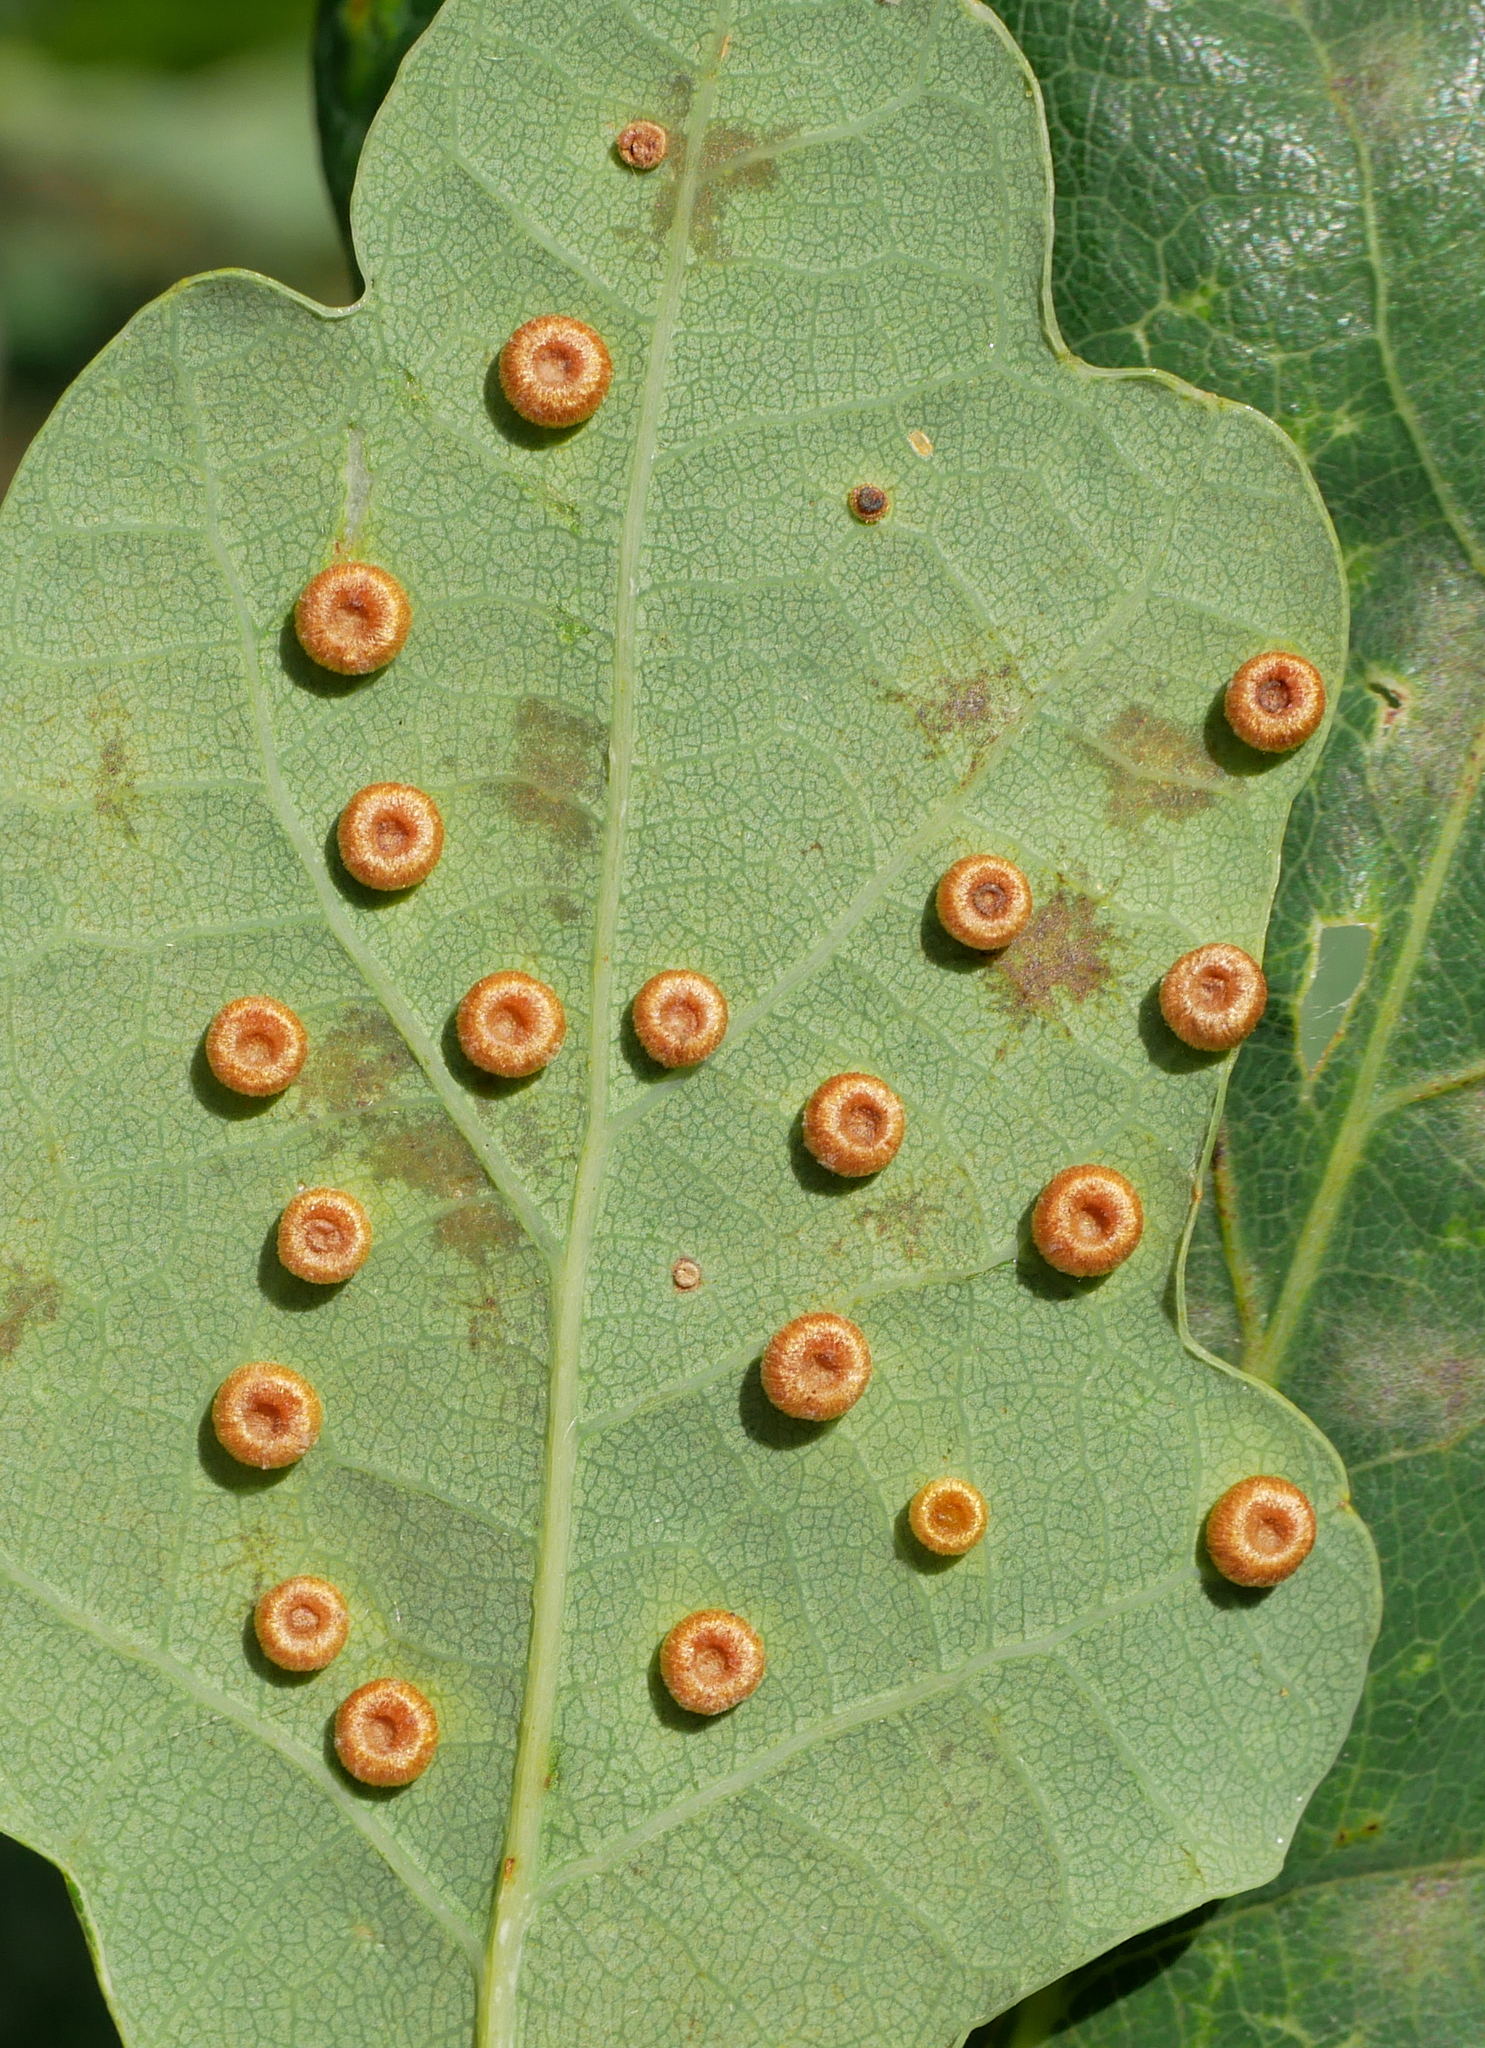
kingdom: Animalia
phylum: Arthropoda
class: Insecta
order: Hymenoptera
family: Cynipidae
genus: Neuroterus
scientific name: Neuroterus numismalis
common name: Silk-button spangle gall
